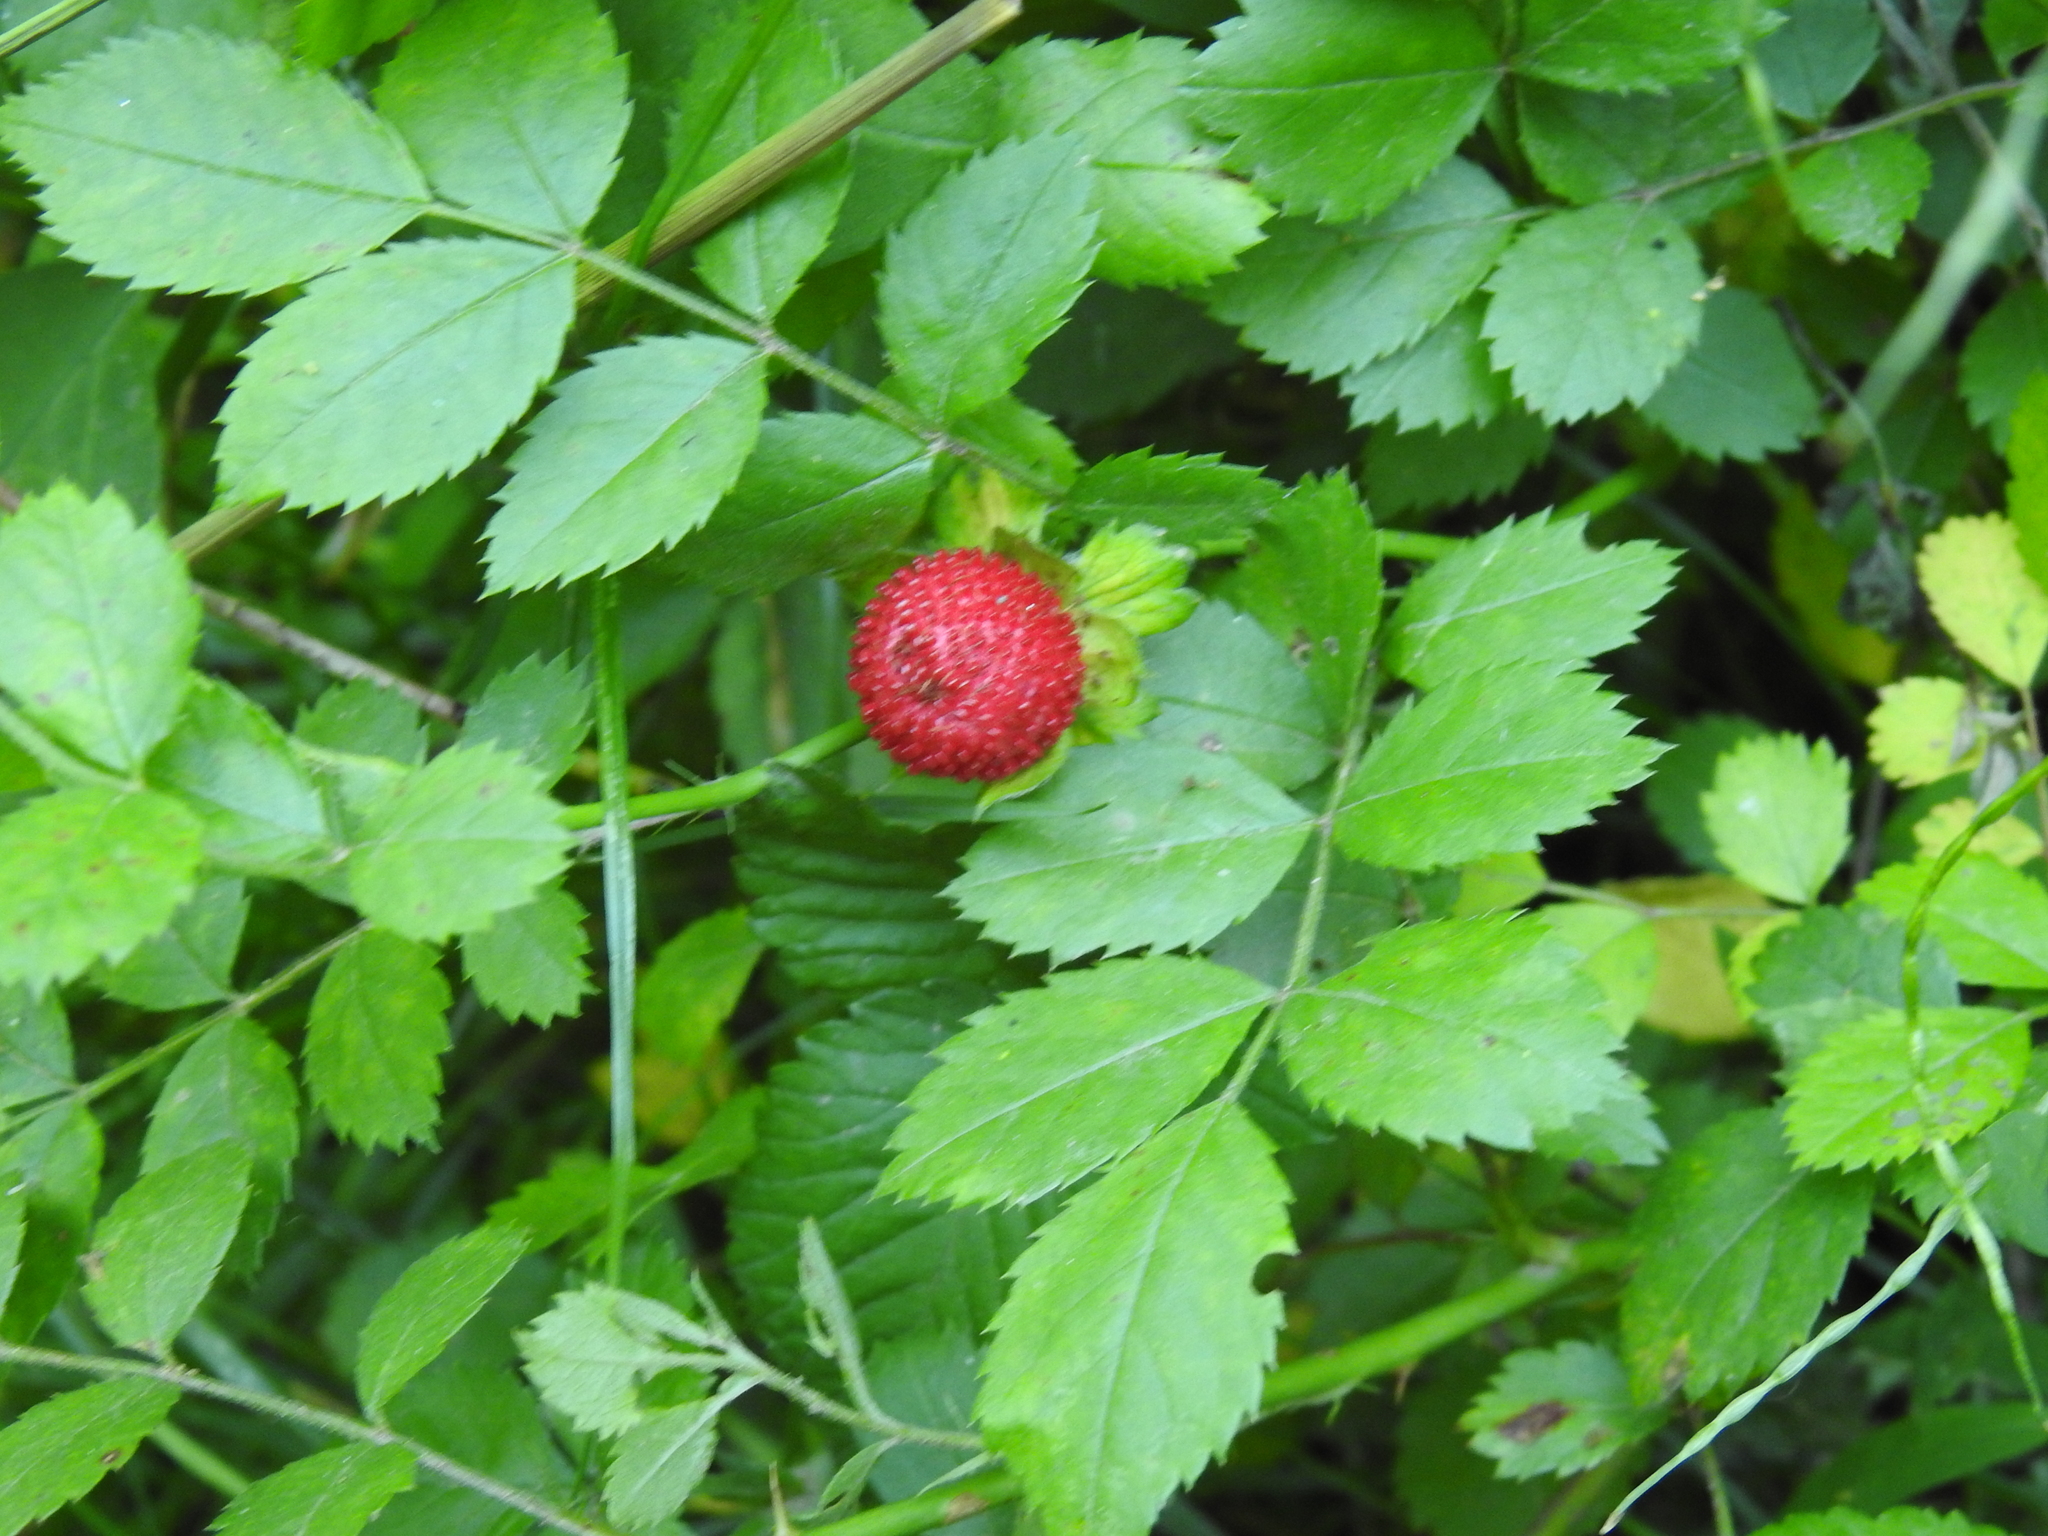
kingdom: Plantae
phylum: Tracheophyta
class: Magnoliopsida
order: Rosales
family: Rosaceae
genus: Potentilla
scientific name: Potentilla indica
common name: Yellow-flowered strawberry
